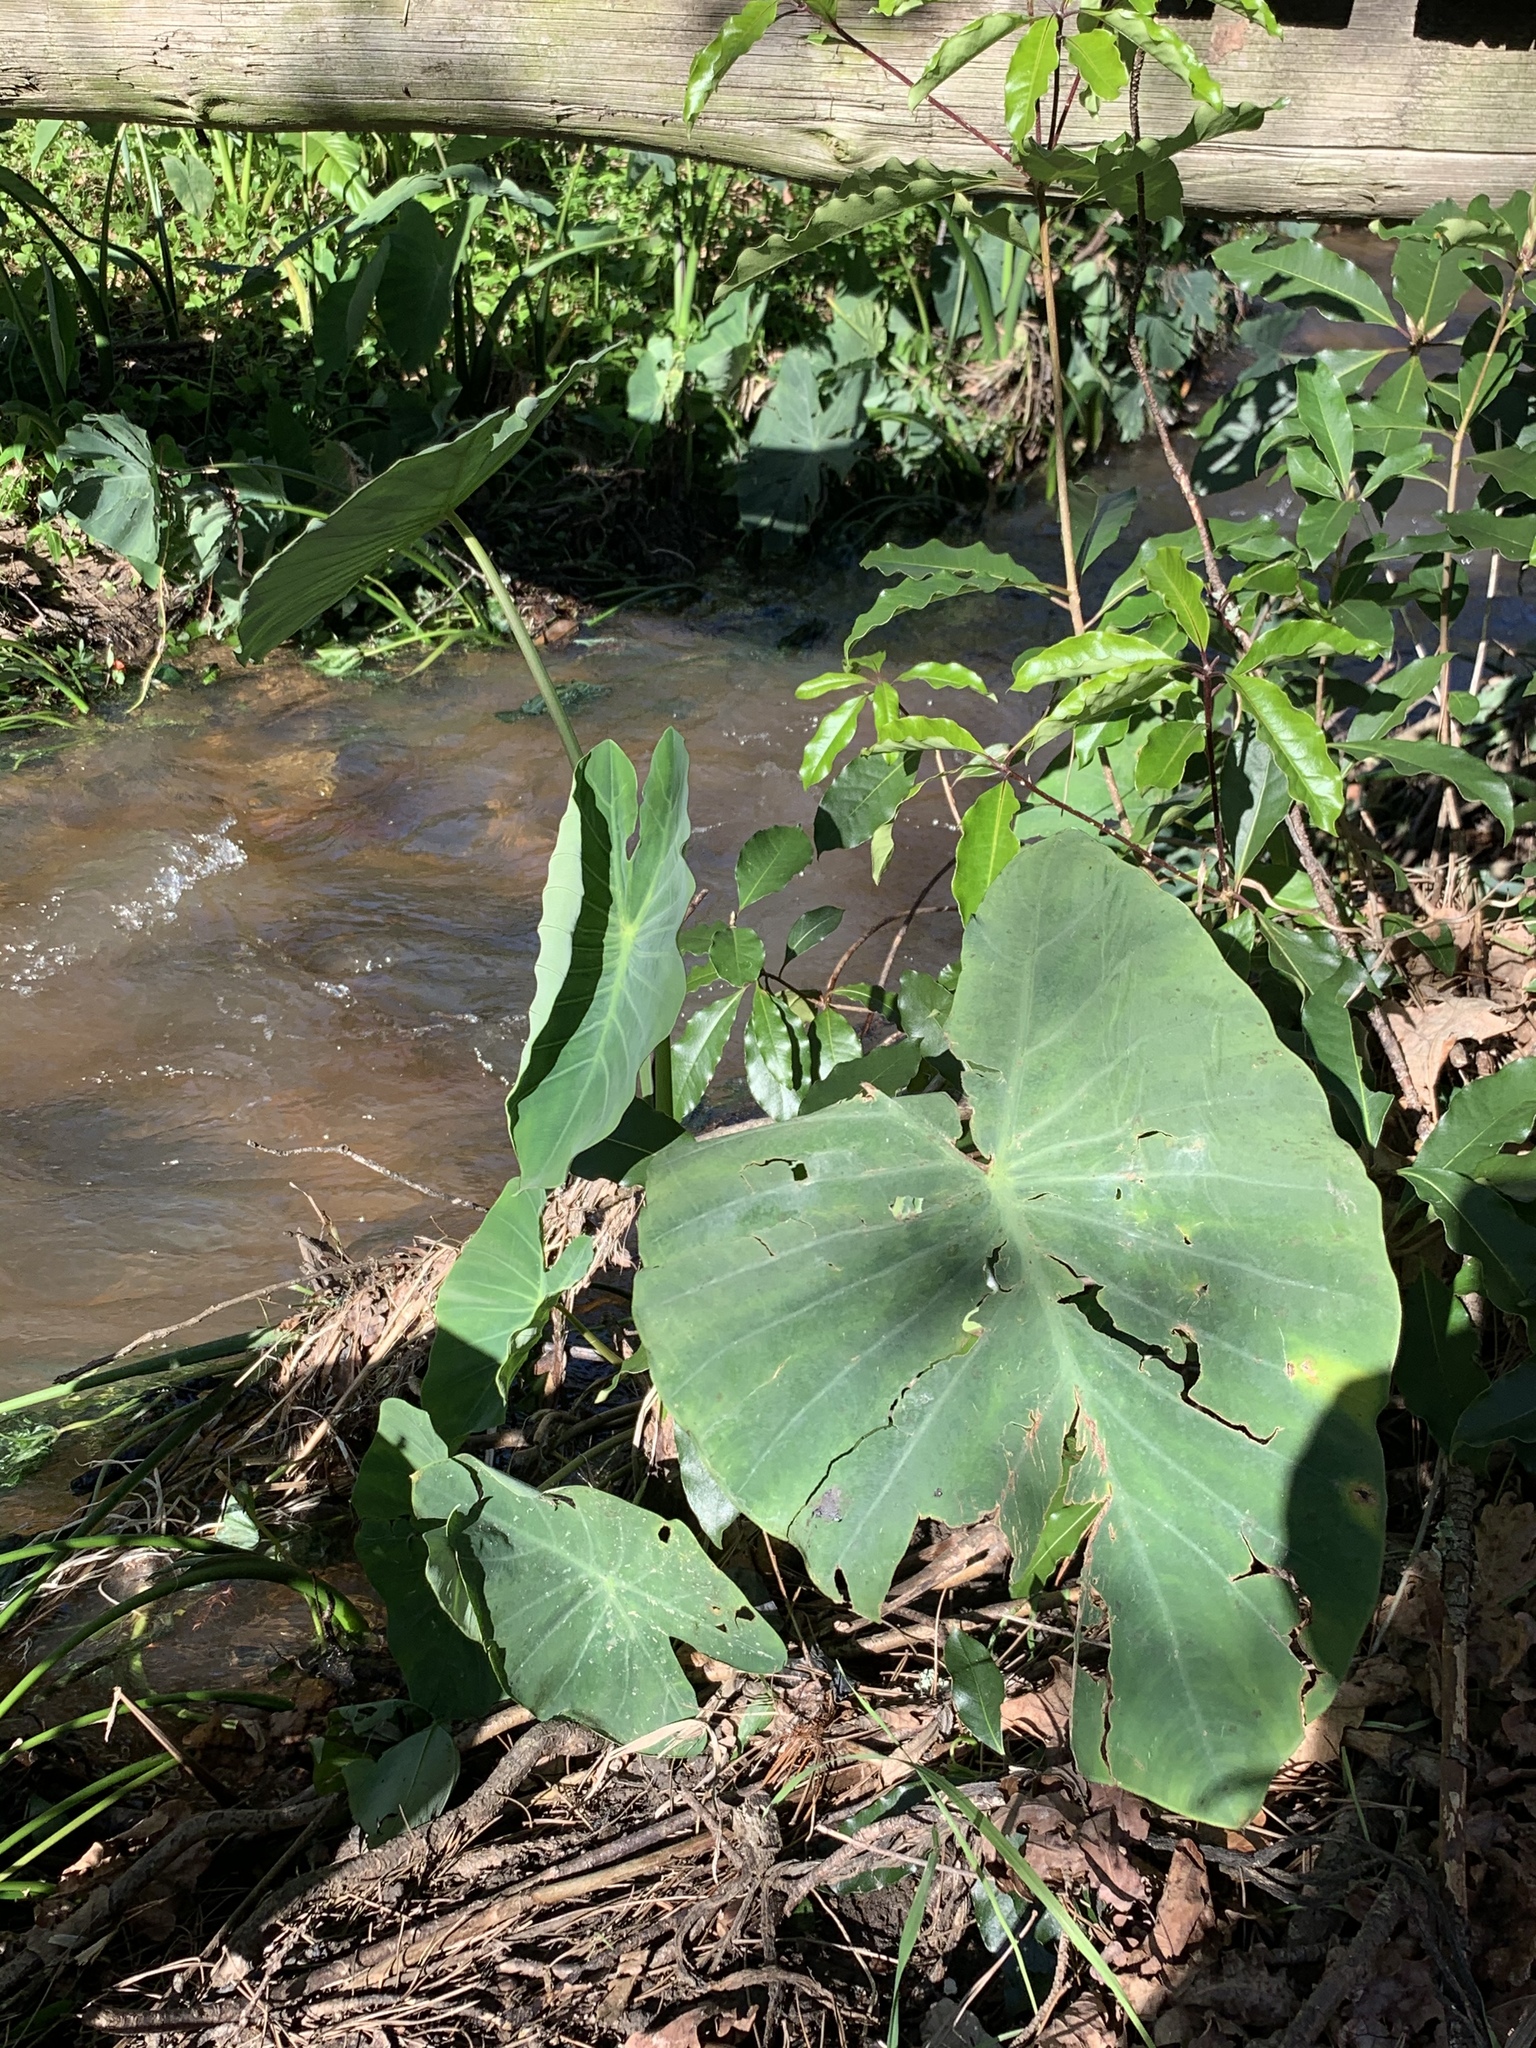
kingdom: Plantae
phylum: Tracheophyta
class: Liliopsida
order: Alismatales
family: Araceae
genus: Colocasia
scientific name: Colocasia esculenta
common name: Taro
